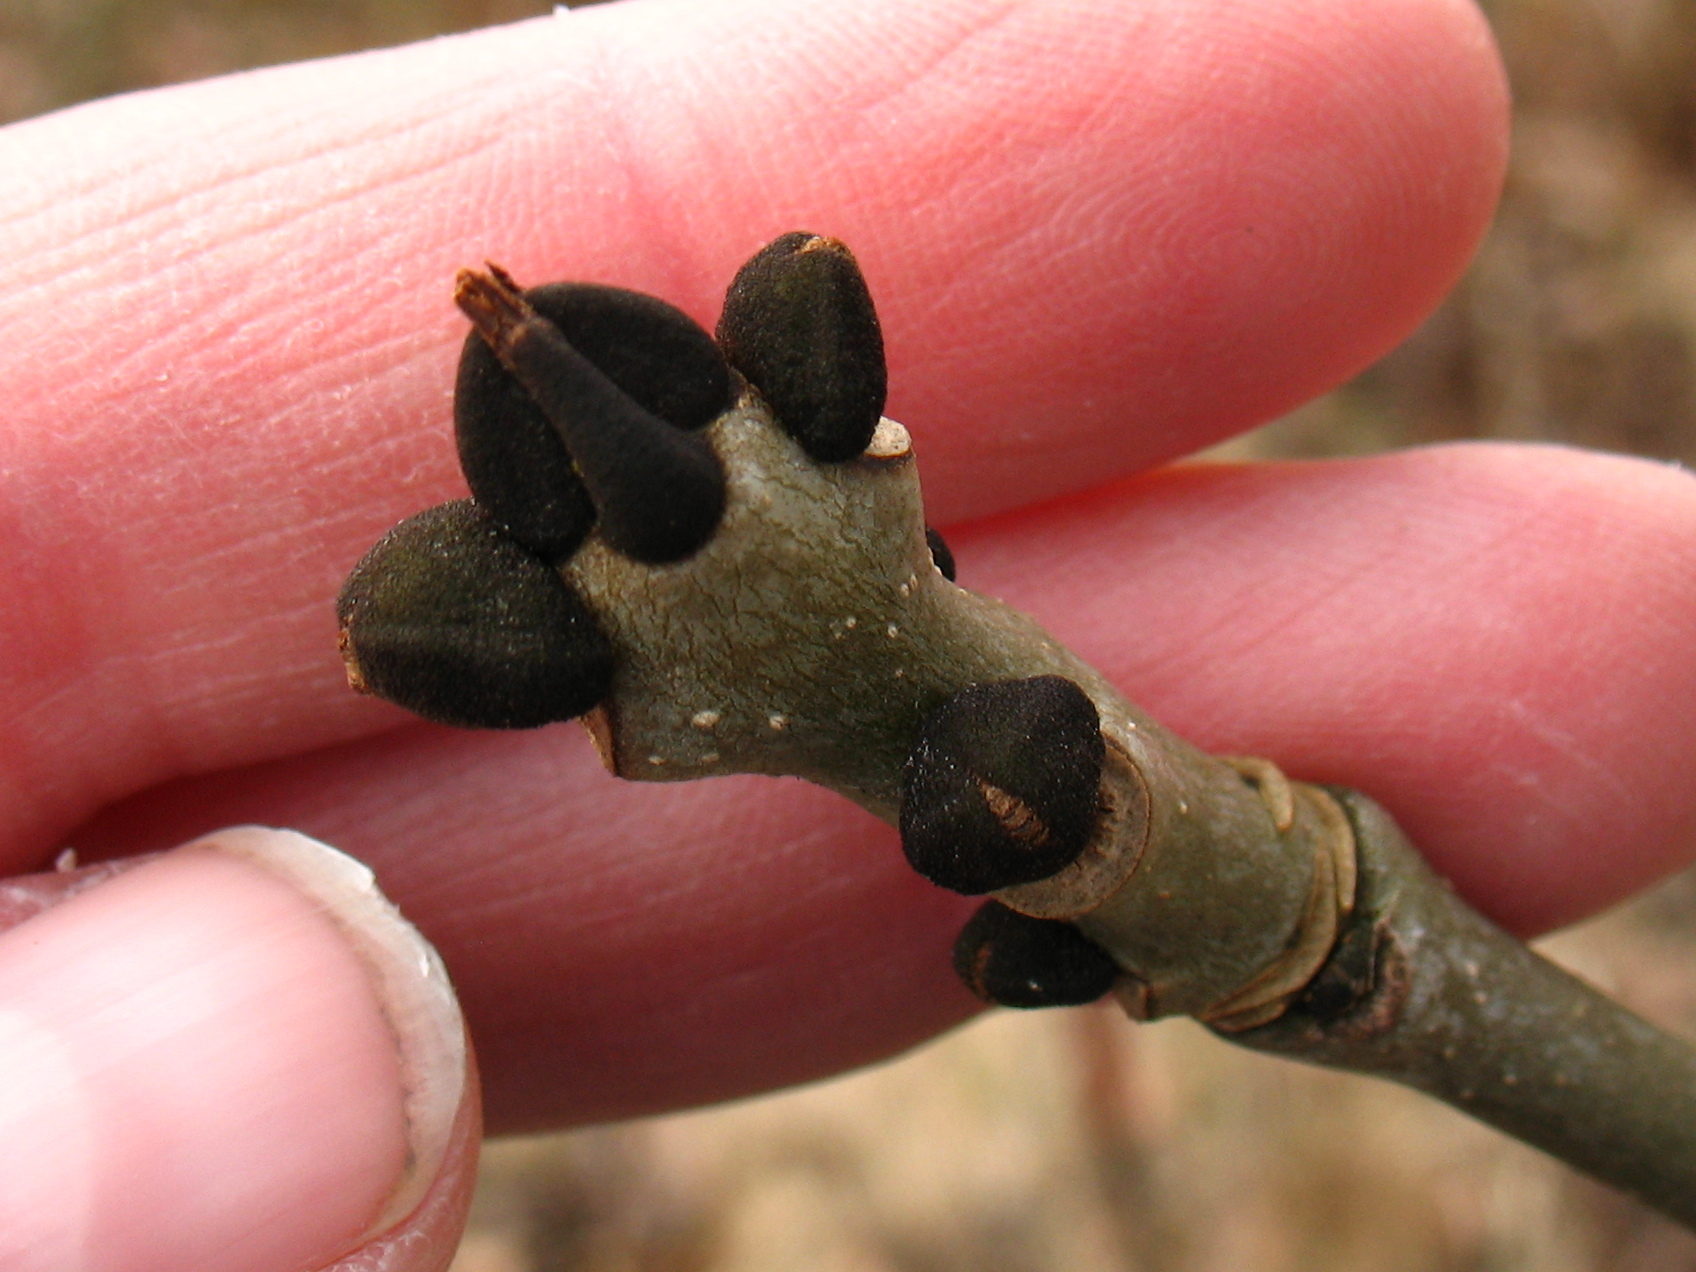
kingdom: Plantae
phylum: Tracheophyta
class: Magnoliopsida
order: Lamiales
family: Oleaceae
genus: Fraxinus
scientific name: Fraxinus excelsior
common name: European ash
